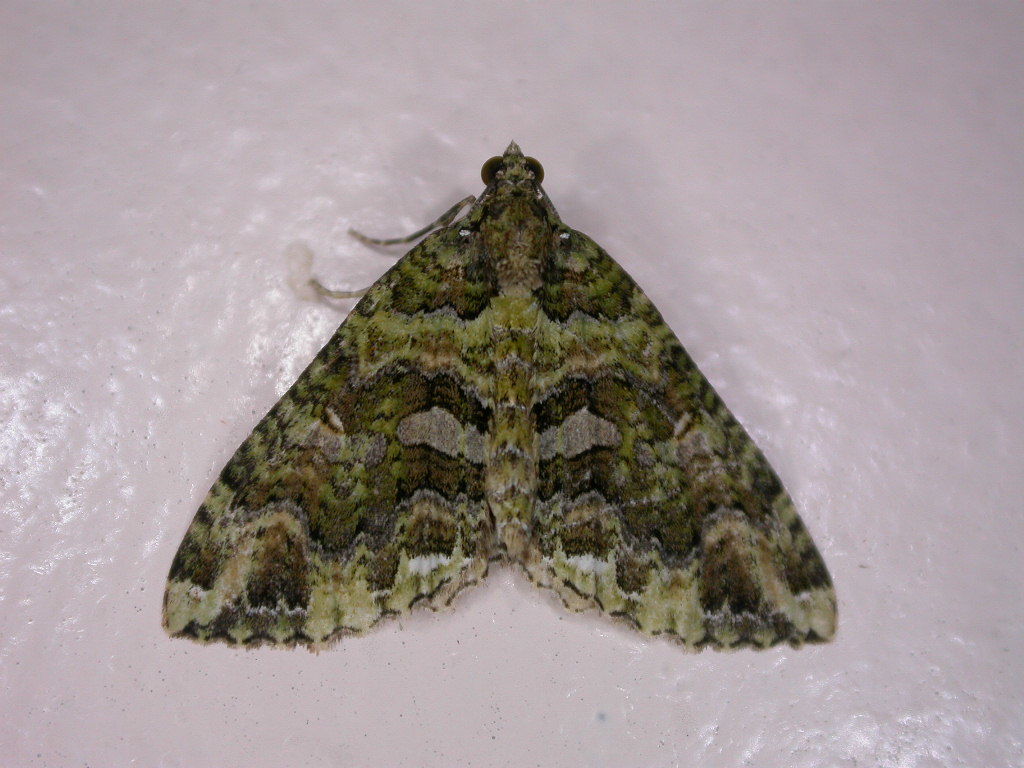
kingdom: Animalia
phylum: Arthropoda
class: Insecta
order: Lepidoptera
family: Geometridae
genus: Austrocidaria
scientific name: Austrocidaria similata
